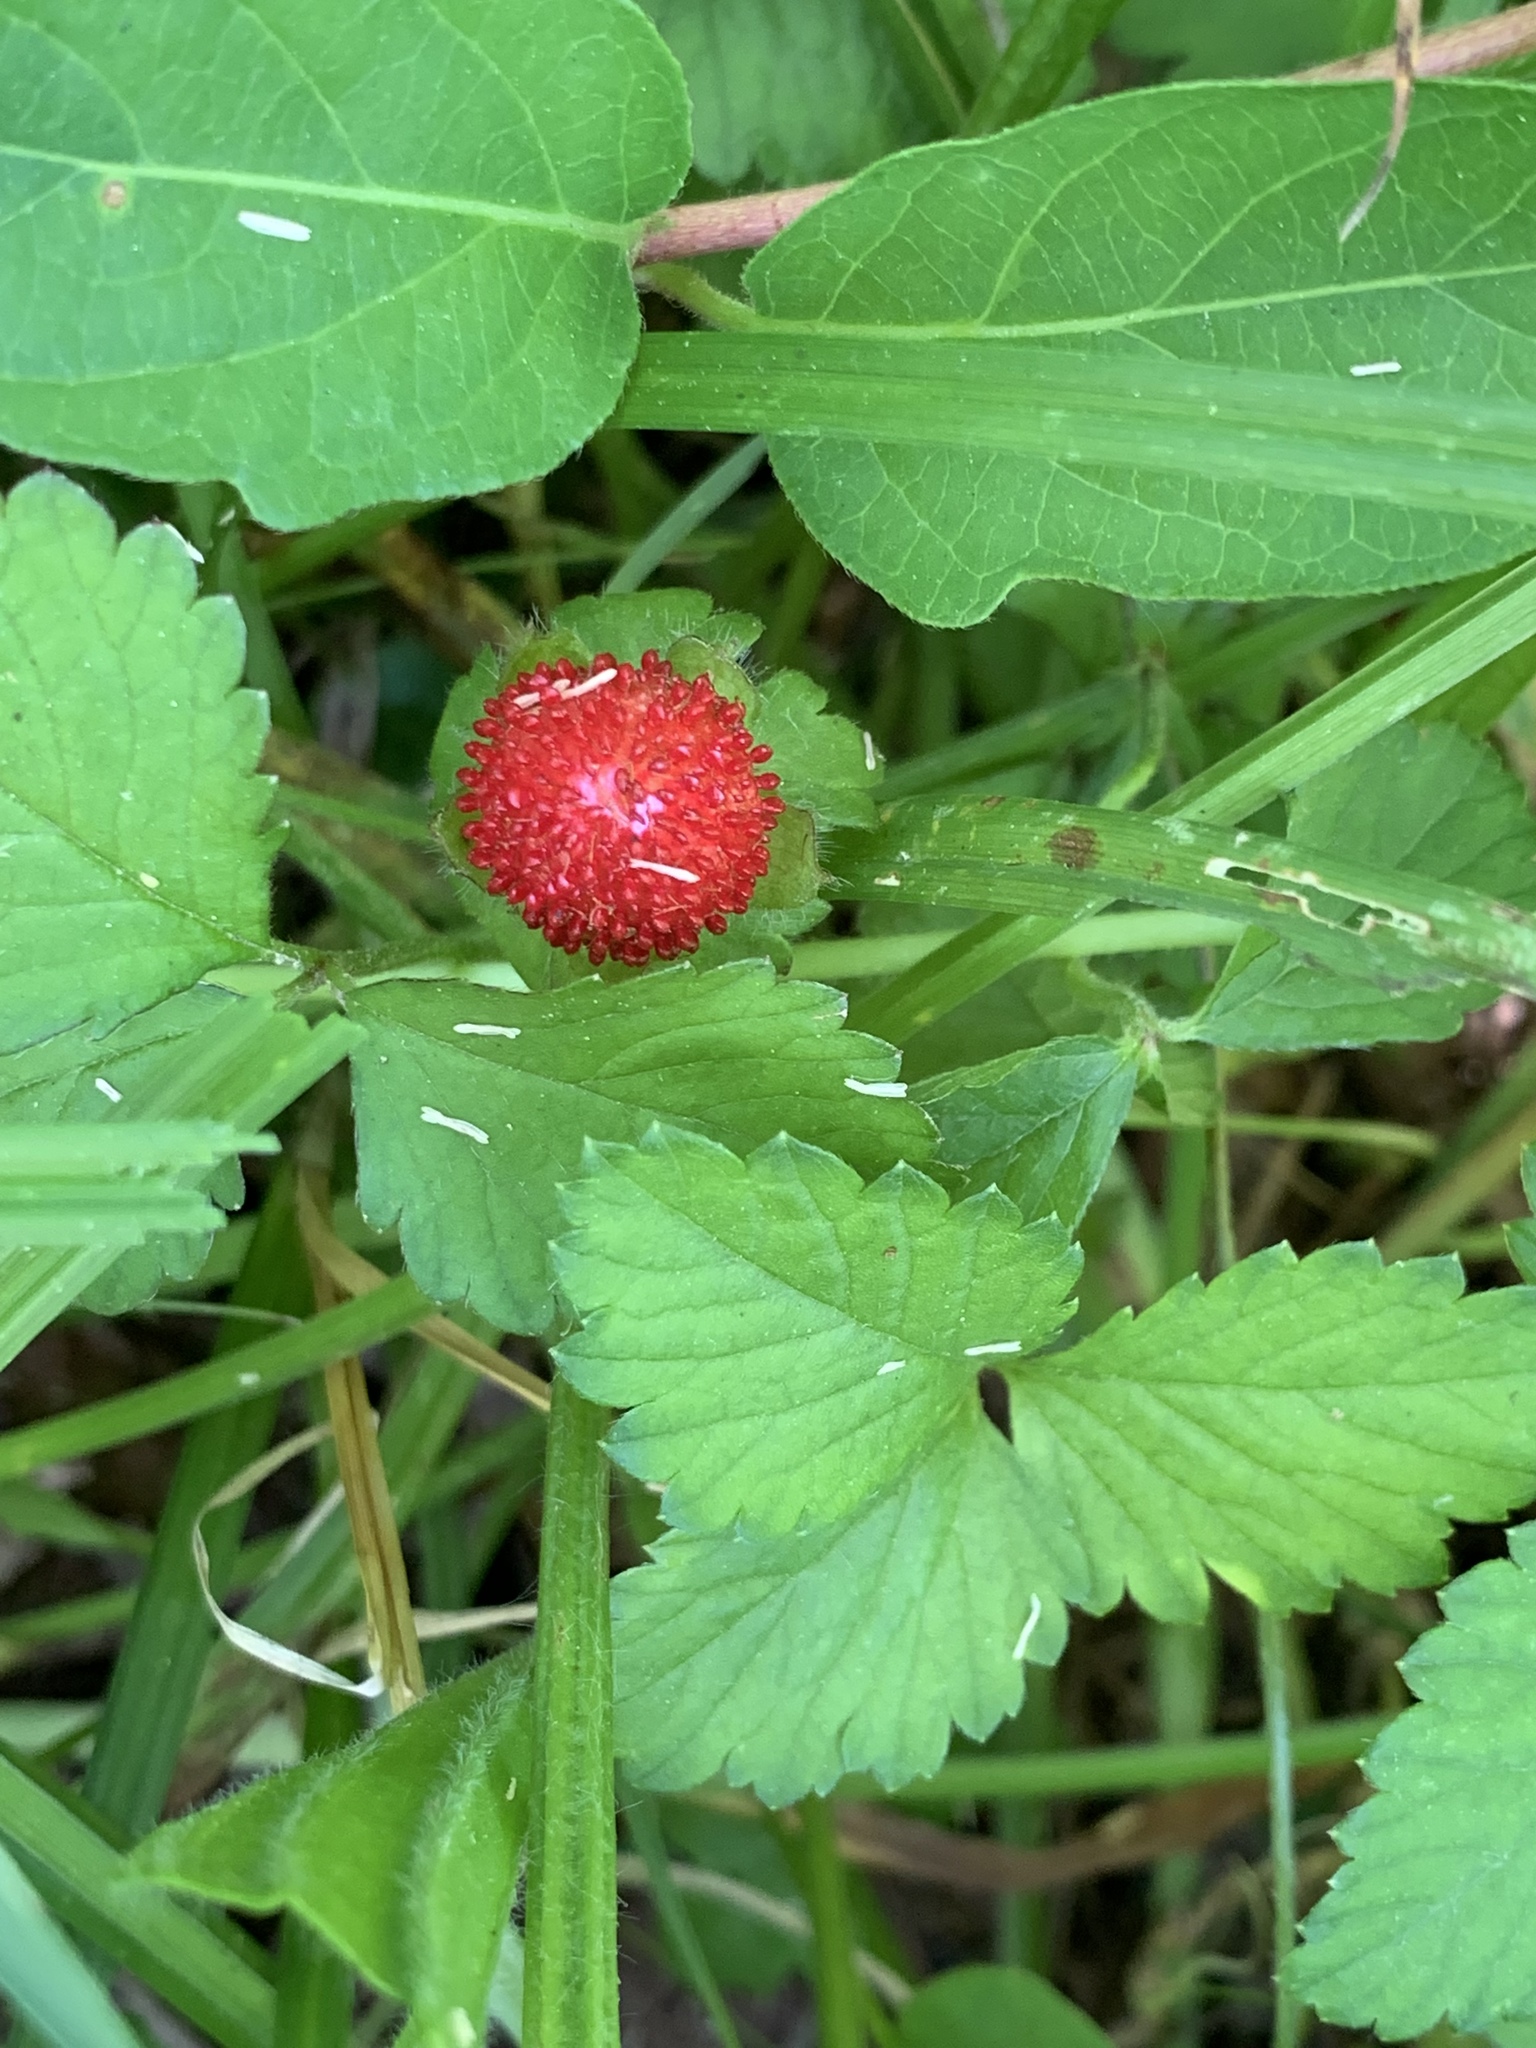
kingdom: Plantae
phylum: Tracheophyta
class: Magnoliopsida
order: Rosales
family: Rosaceae
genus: Potentilla
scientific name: Potentilla indica
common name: Yellow-flowered strawberry
